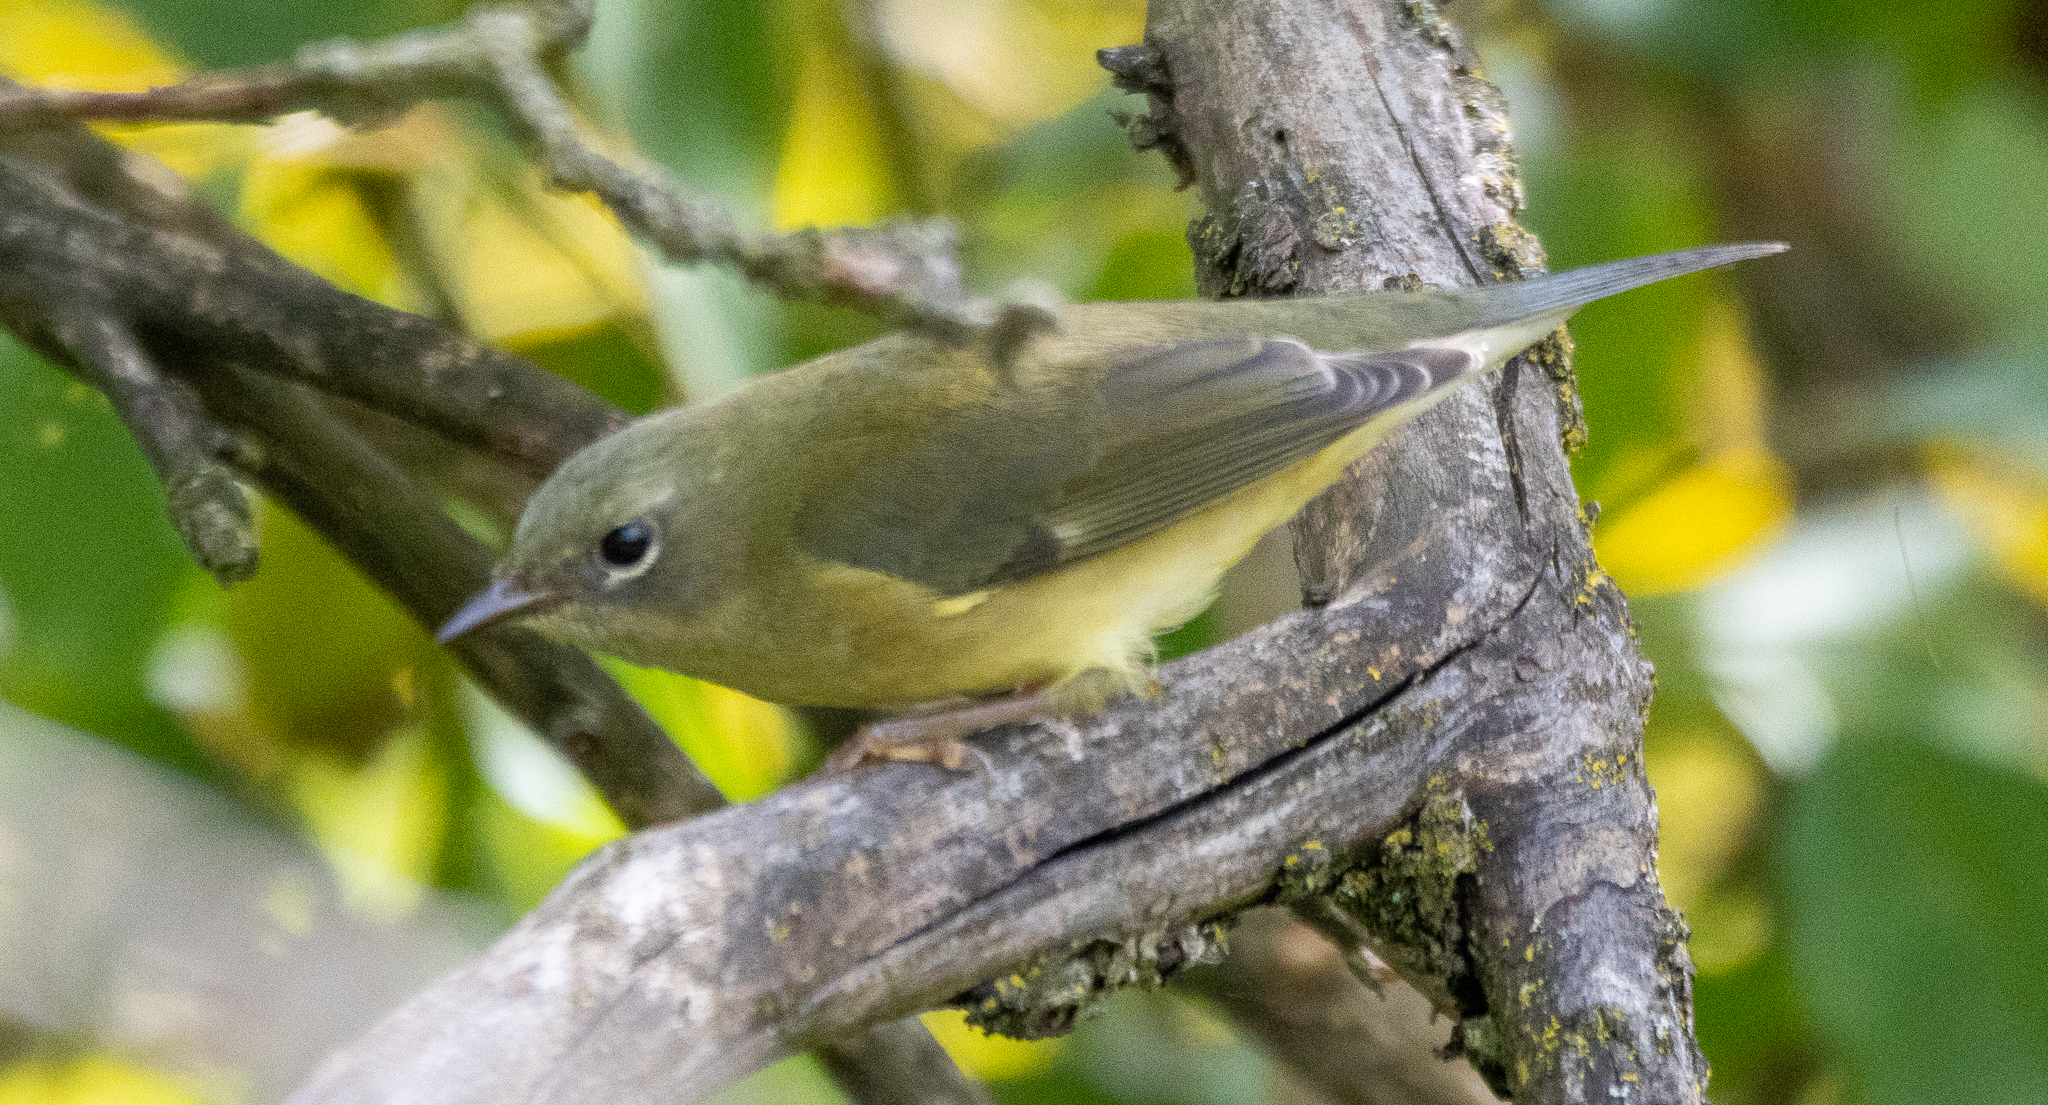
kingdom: Animalia
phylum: Chordata
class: Aves
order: Passeriformes
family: Parulidae
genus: Setophaga
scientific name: Setophaga caerulescens
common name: Black-throated blue warbler
